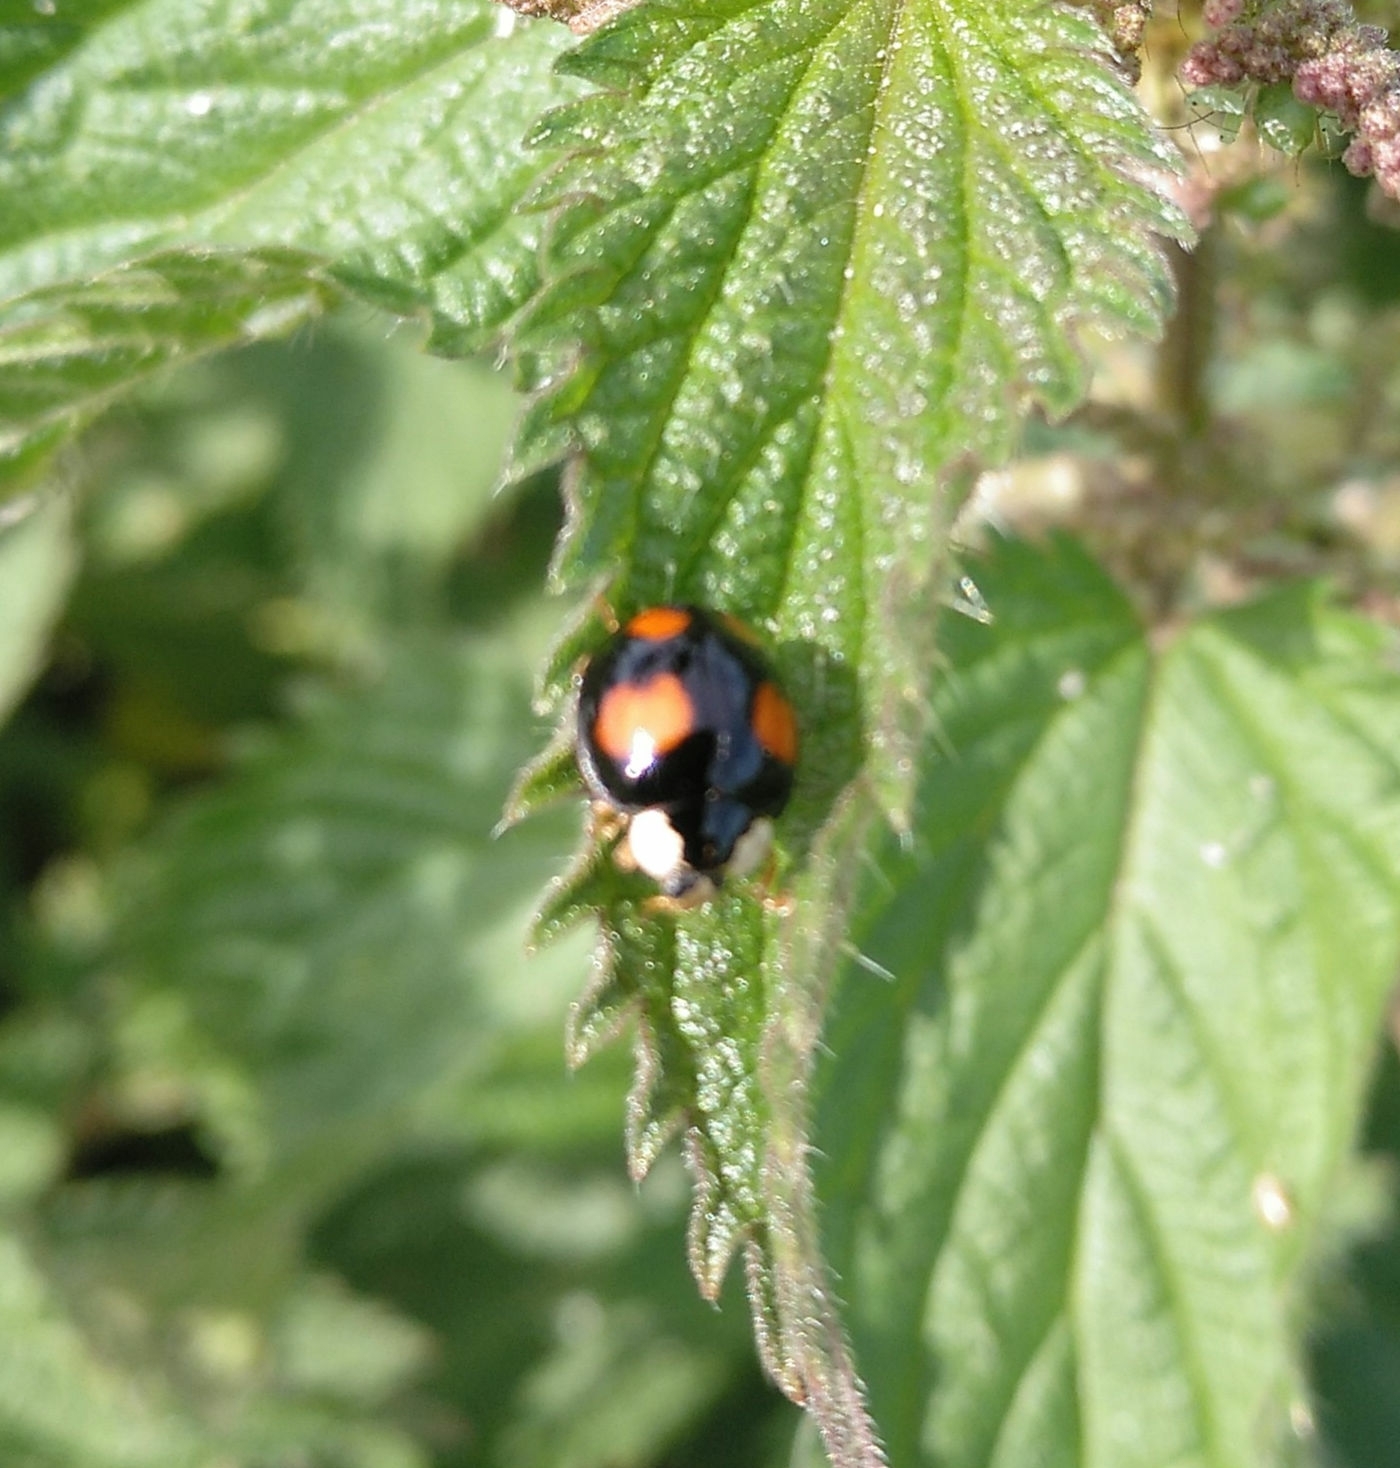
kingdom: Animalia
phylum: Arthropoda
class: Insecta
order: Coleoptera
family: Coccinellidae
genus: Harmonia
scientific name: Harmonia axyridis
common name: Harlequin ladybird
